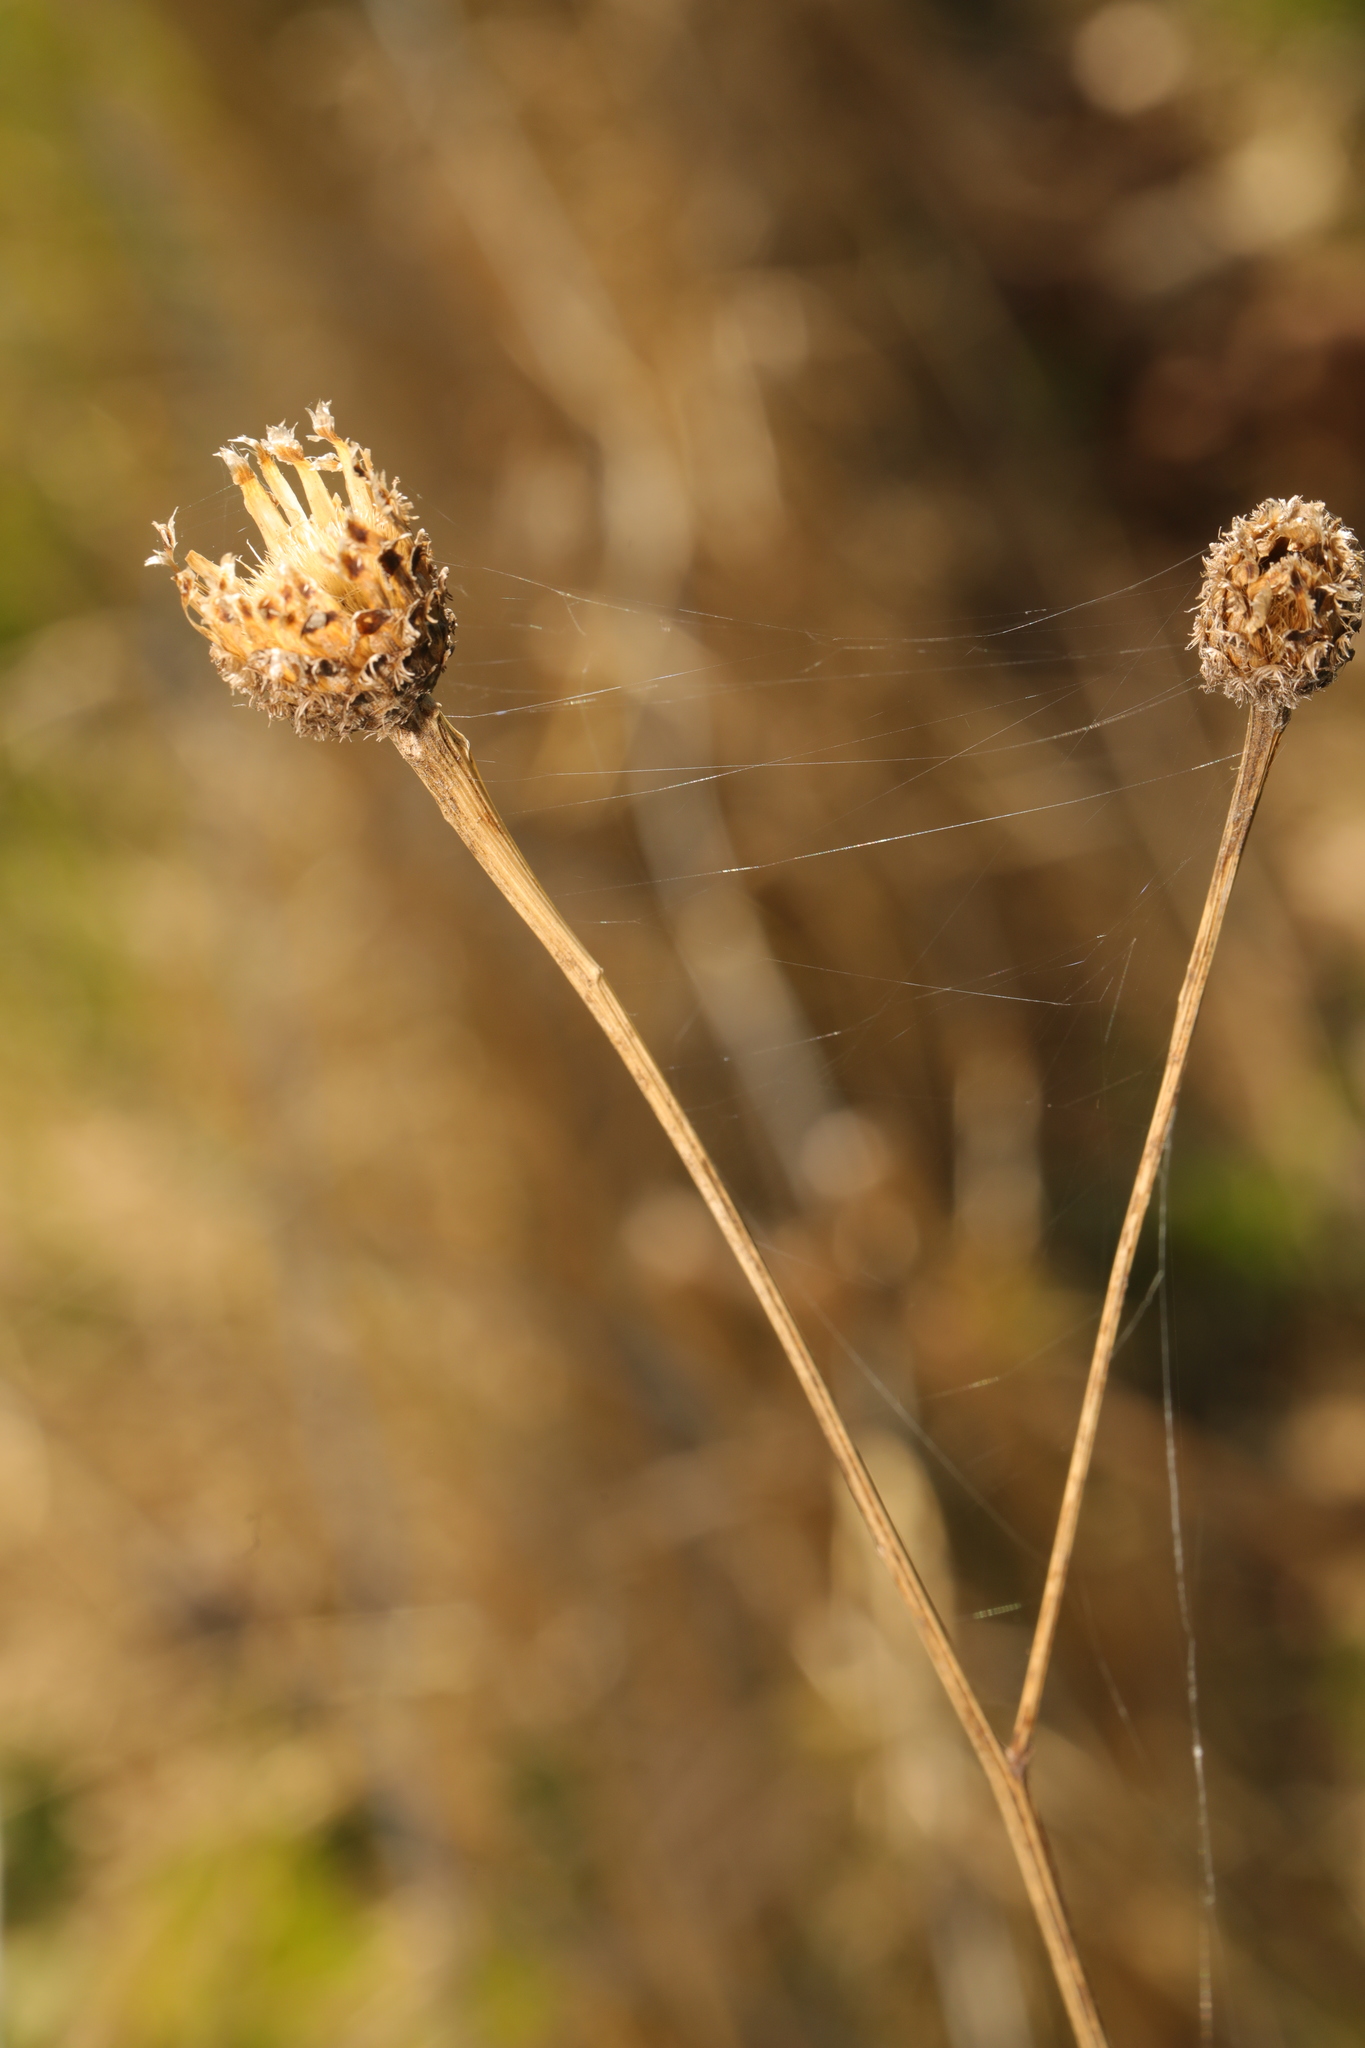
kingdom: Plantae
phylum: Tracheophyta
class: Magnoliopsida
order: Asterales
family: Asteraceae
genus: Centaurea
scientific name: Centaurea nigra
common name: Lesser knapweed
